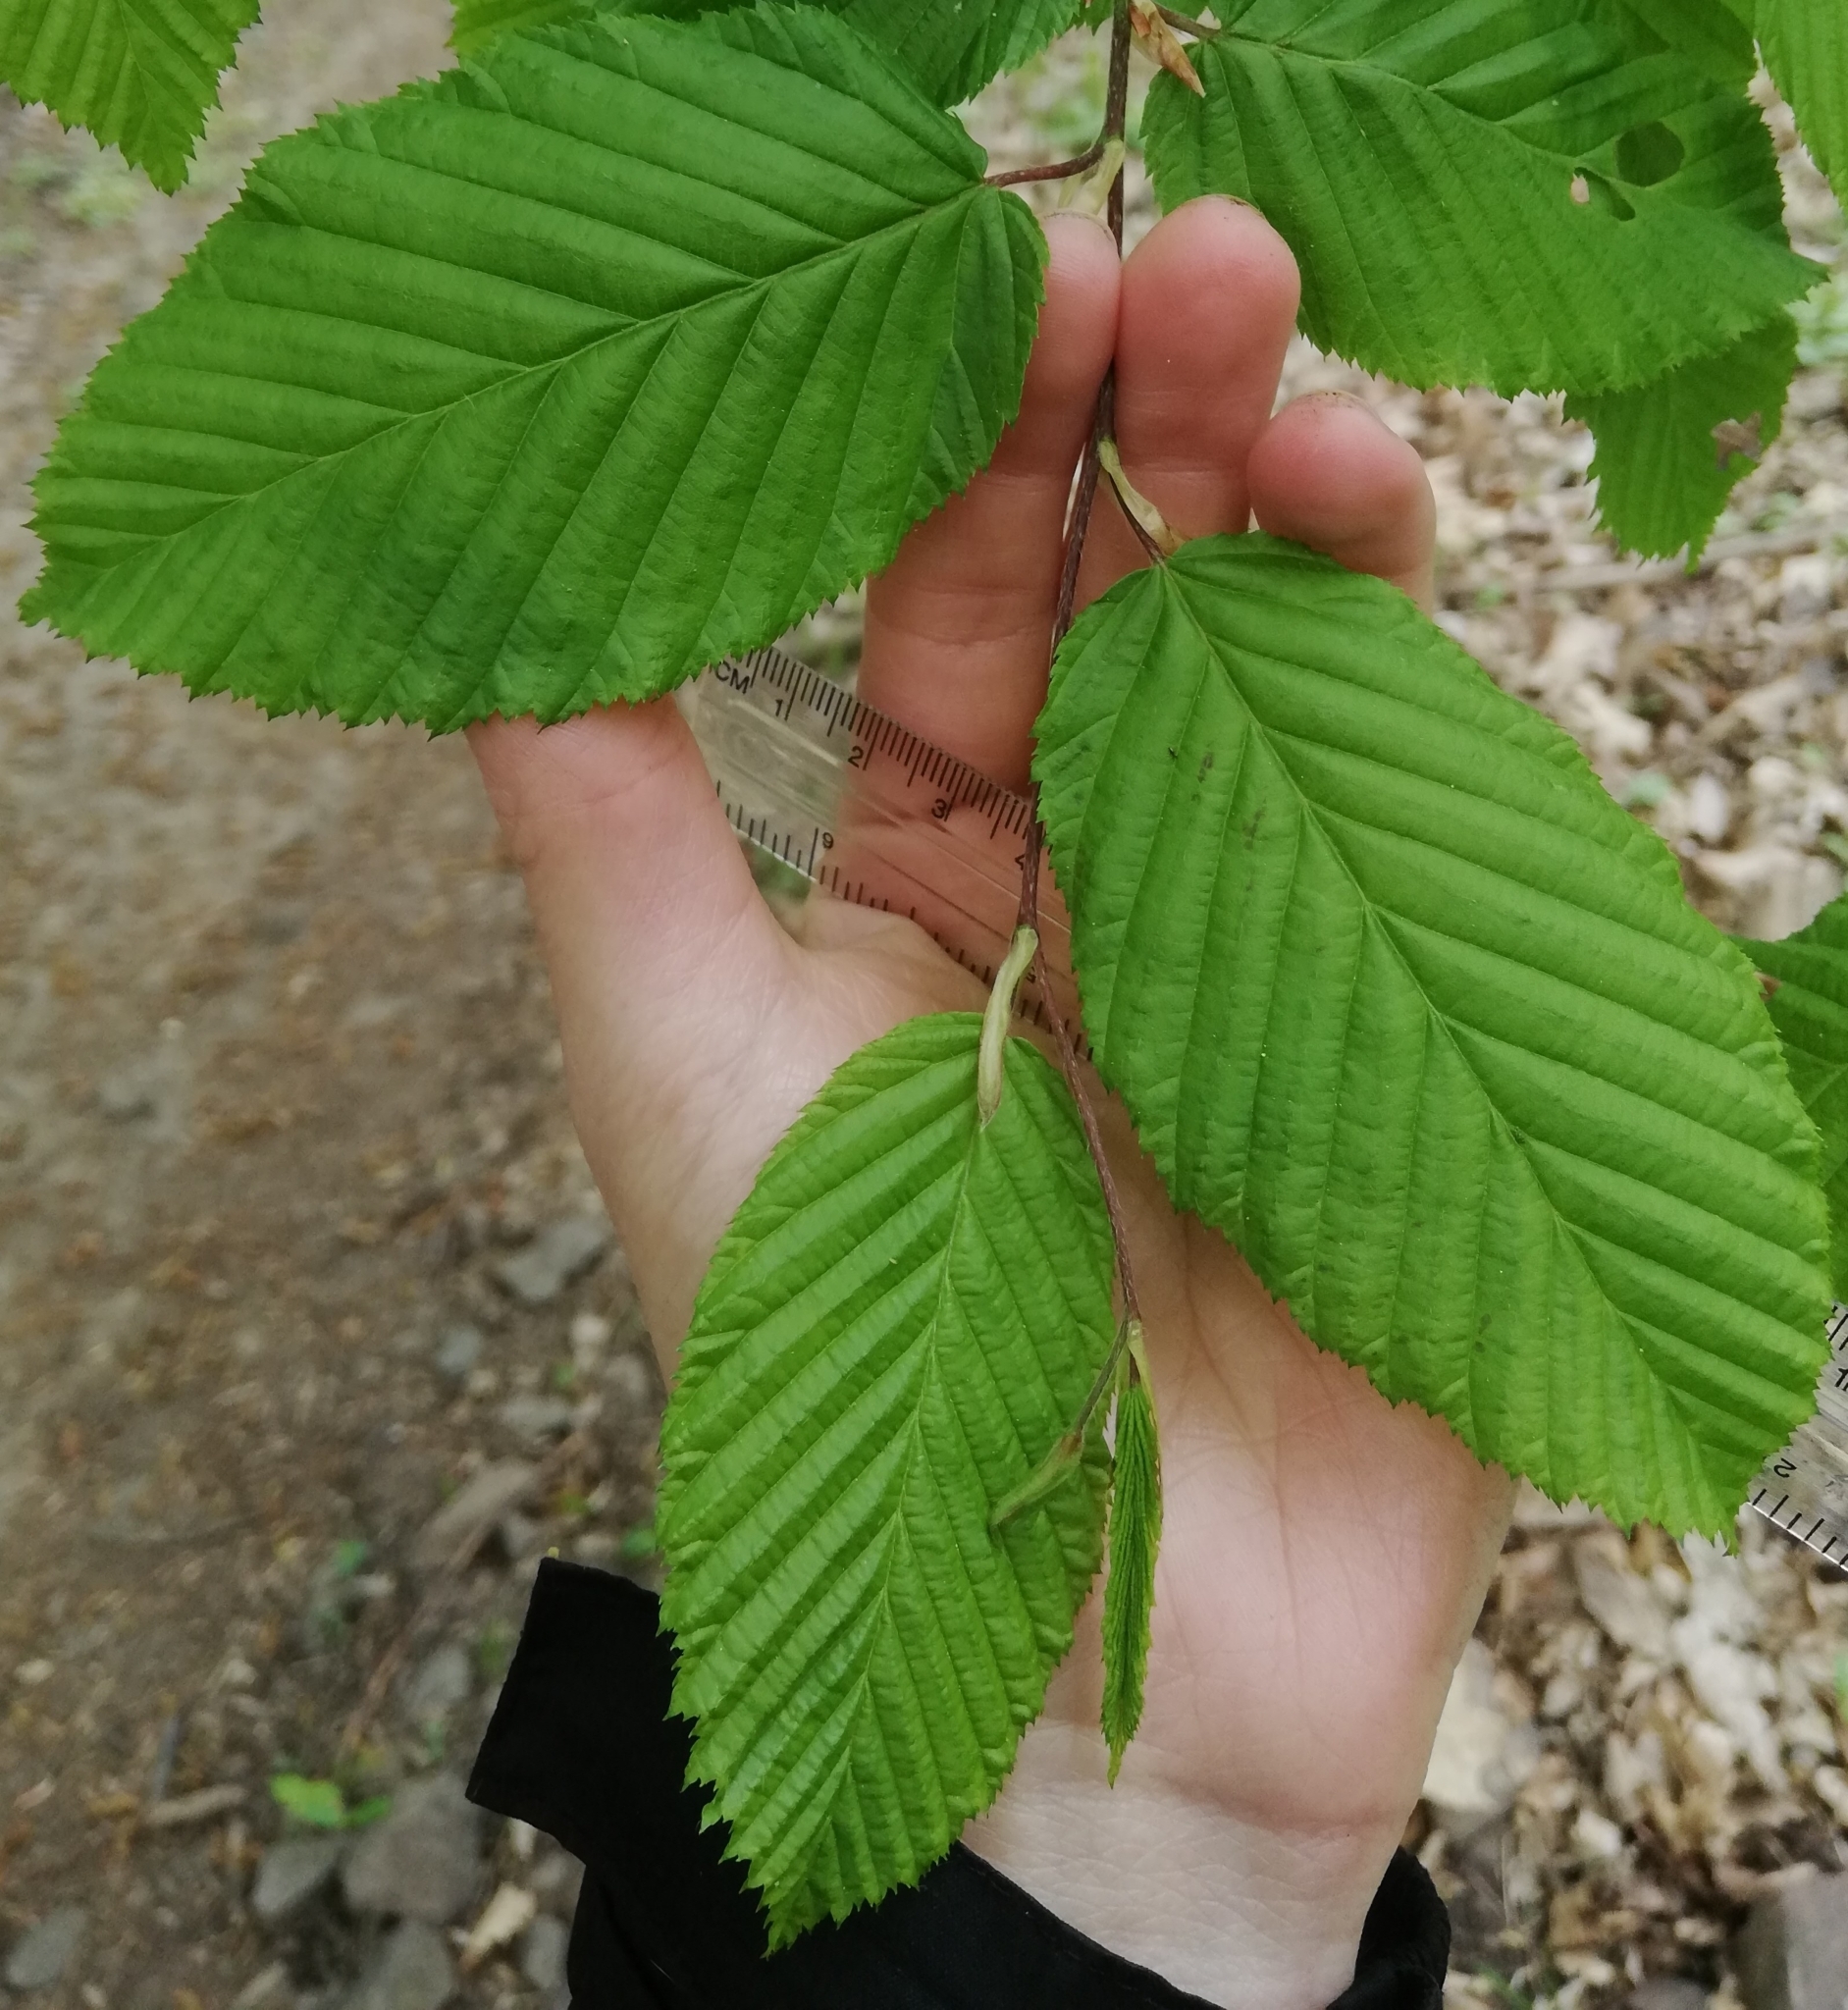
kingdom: Plantae
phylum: Tracheophyta
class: Magnoliopsida
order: Fagales
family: Betulaceae
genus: Carpinus
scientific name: Carpinus betulus
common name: Hornbeam
